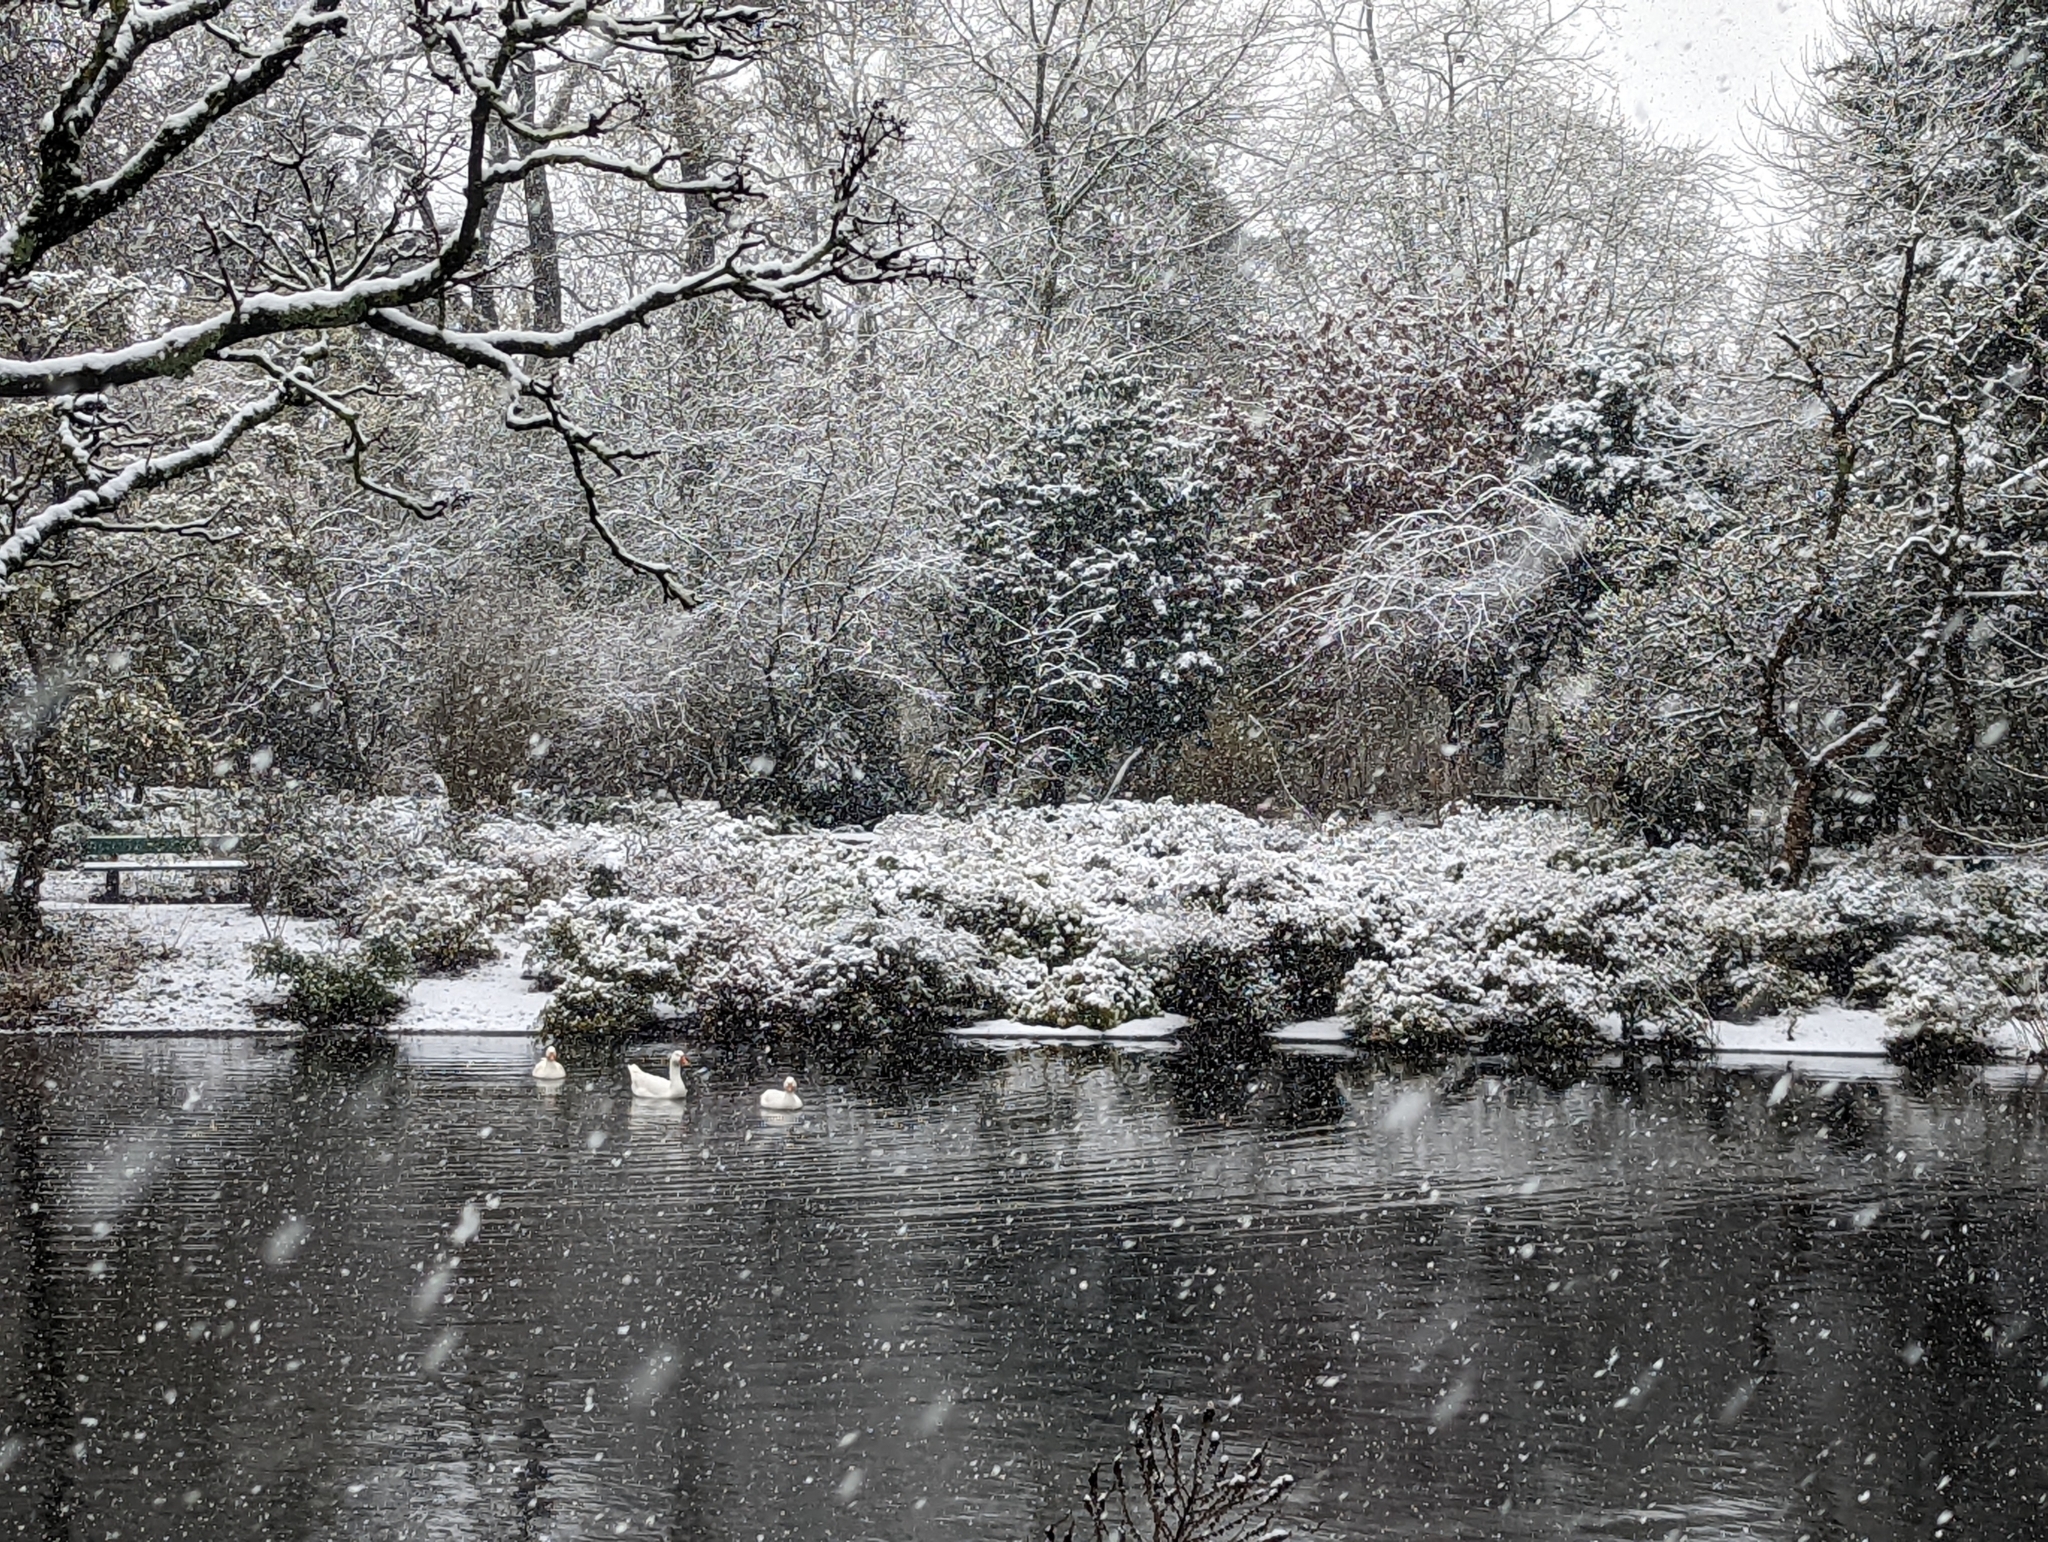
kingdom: Animalia
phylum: Chordata
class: Aves
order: Anseriformes
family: Anatidae
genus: Anser
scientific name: Anser anser
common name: Greylag goose
